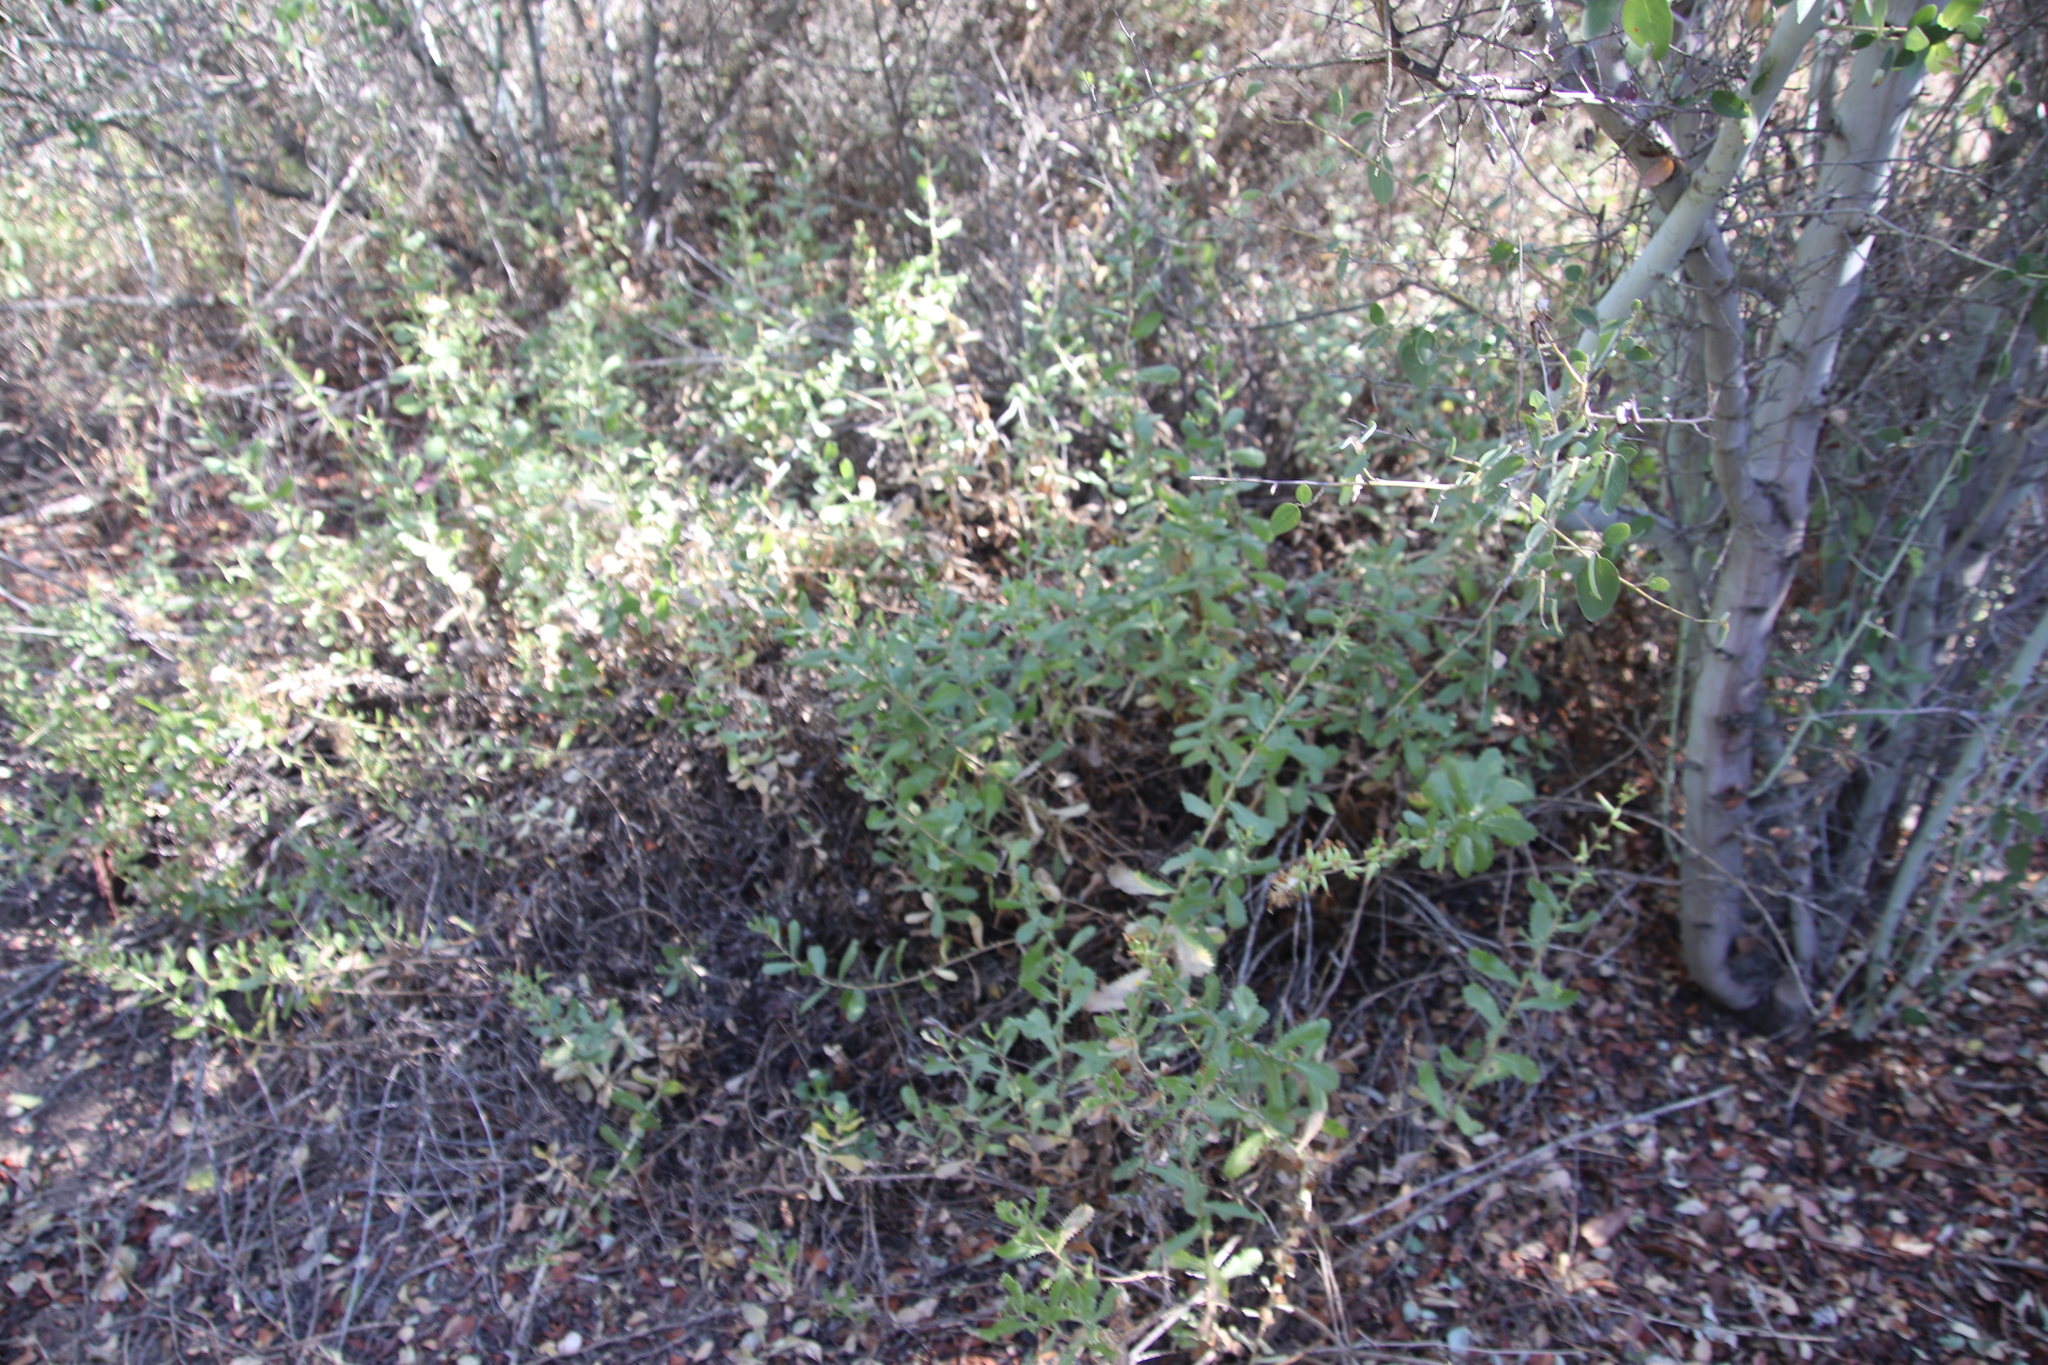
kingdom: Plantae
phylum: Tracheophyta
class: Magnoliopsida
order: Asterales
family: Asteraceae
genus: Hazardia
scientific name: Hazardia squarrosa
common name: Saw-tooth goldenbush
